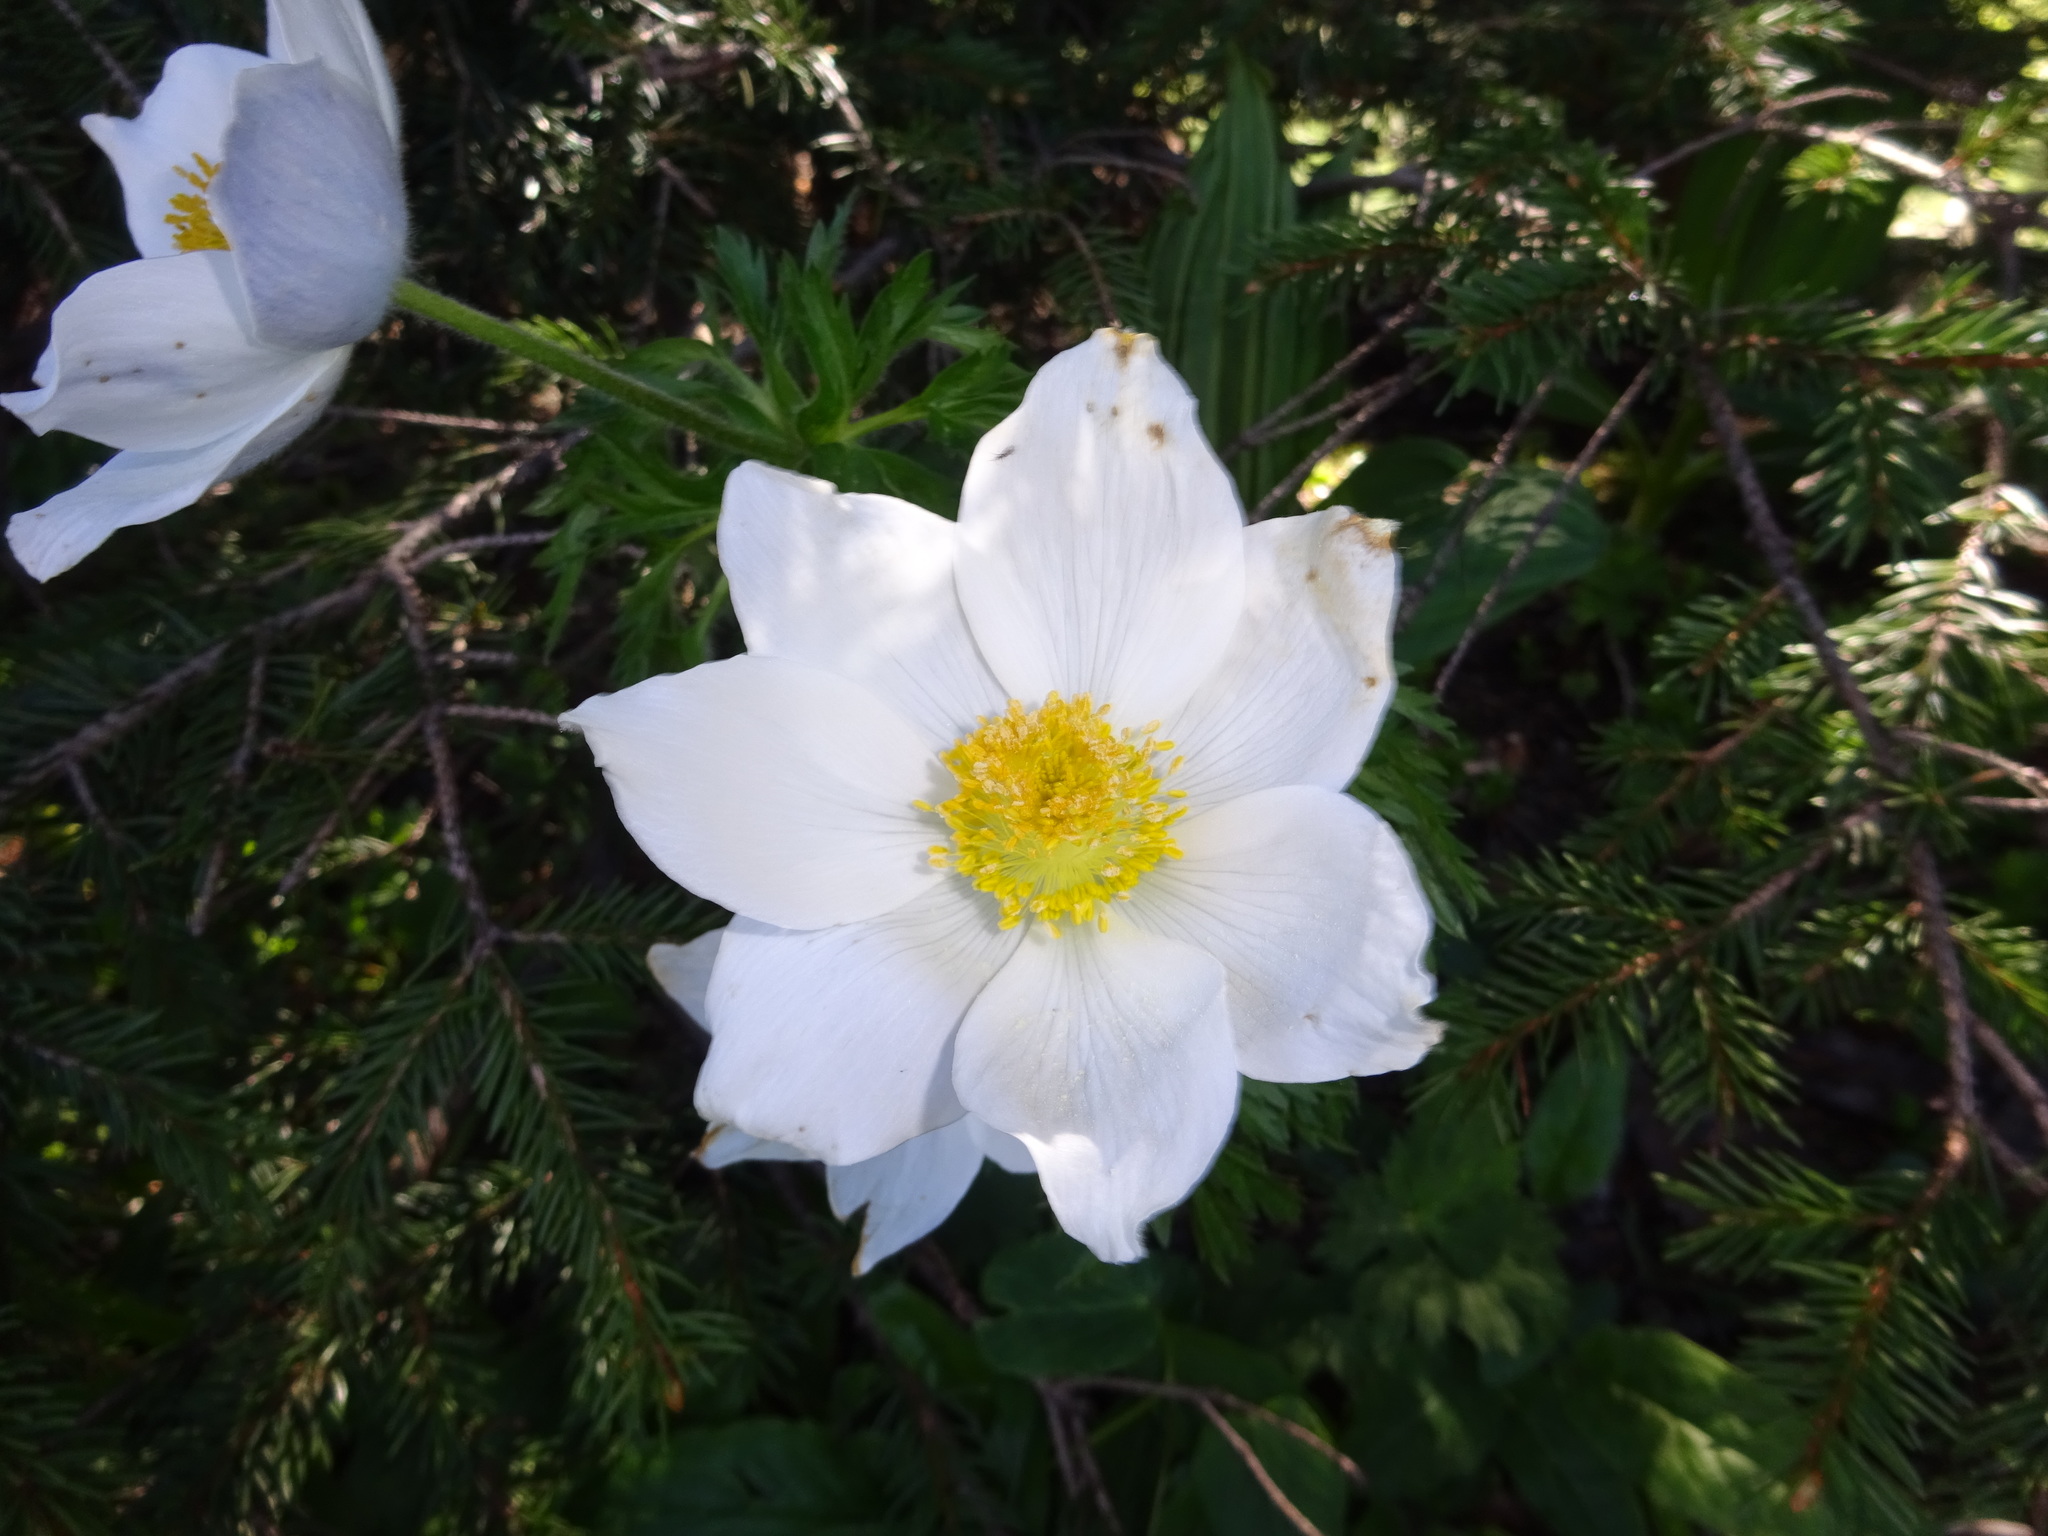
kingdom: Plantae
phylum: Tracheophyta
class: Magnoliopsida
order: Ranunculales
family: Ranunculaceae
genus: Pulsatilla
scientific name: Pulsatilla alpina
